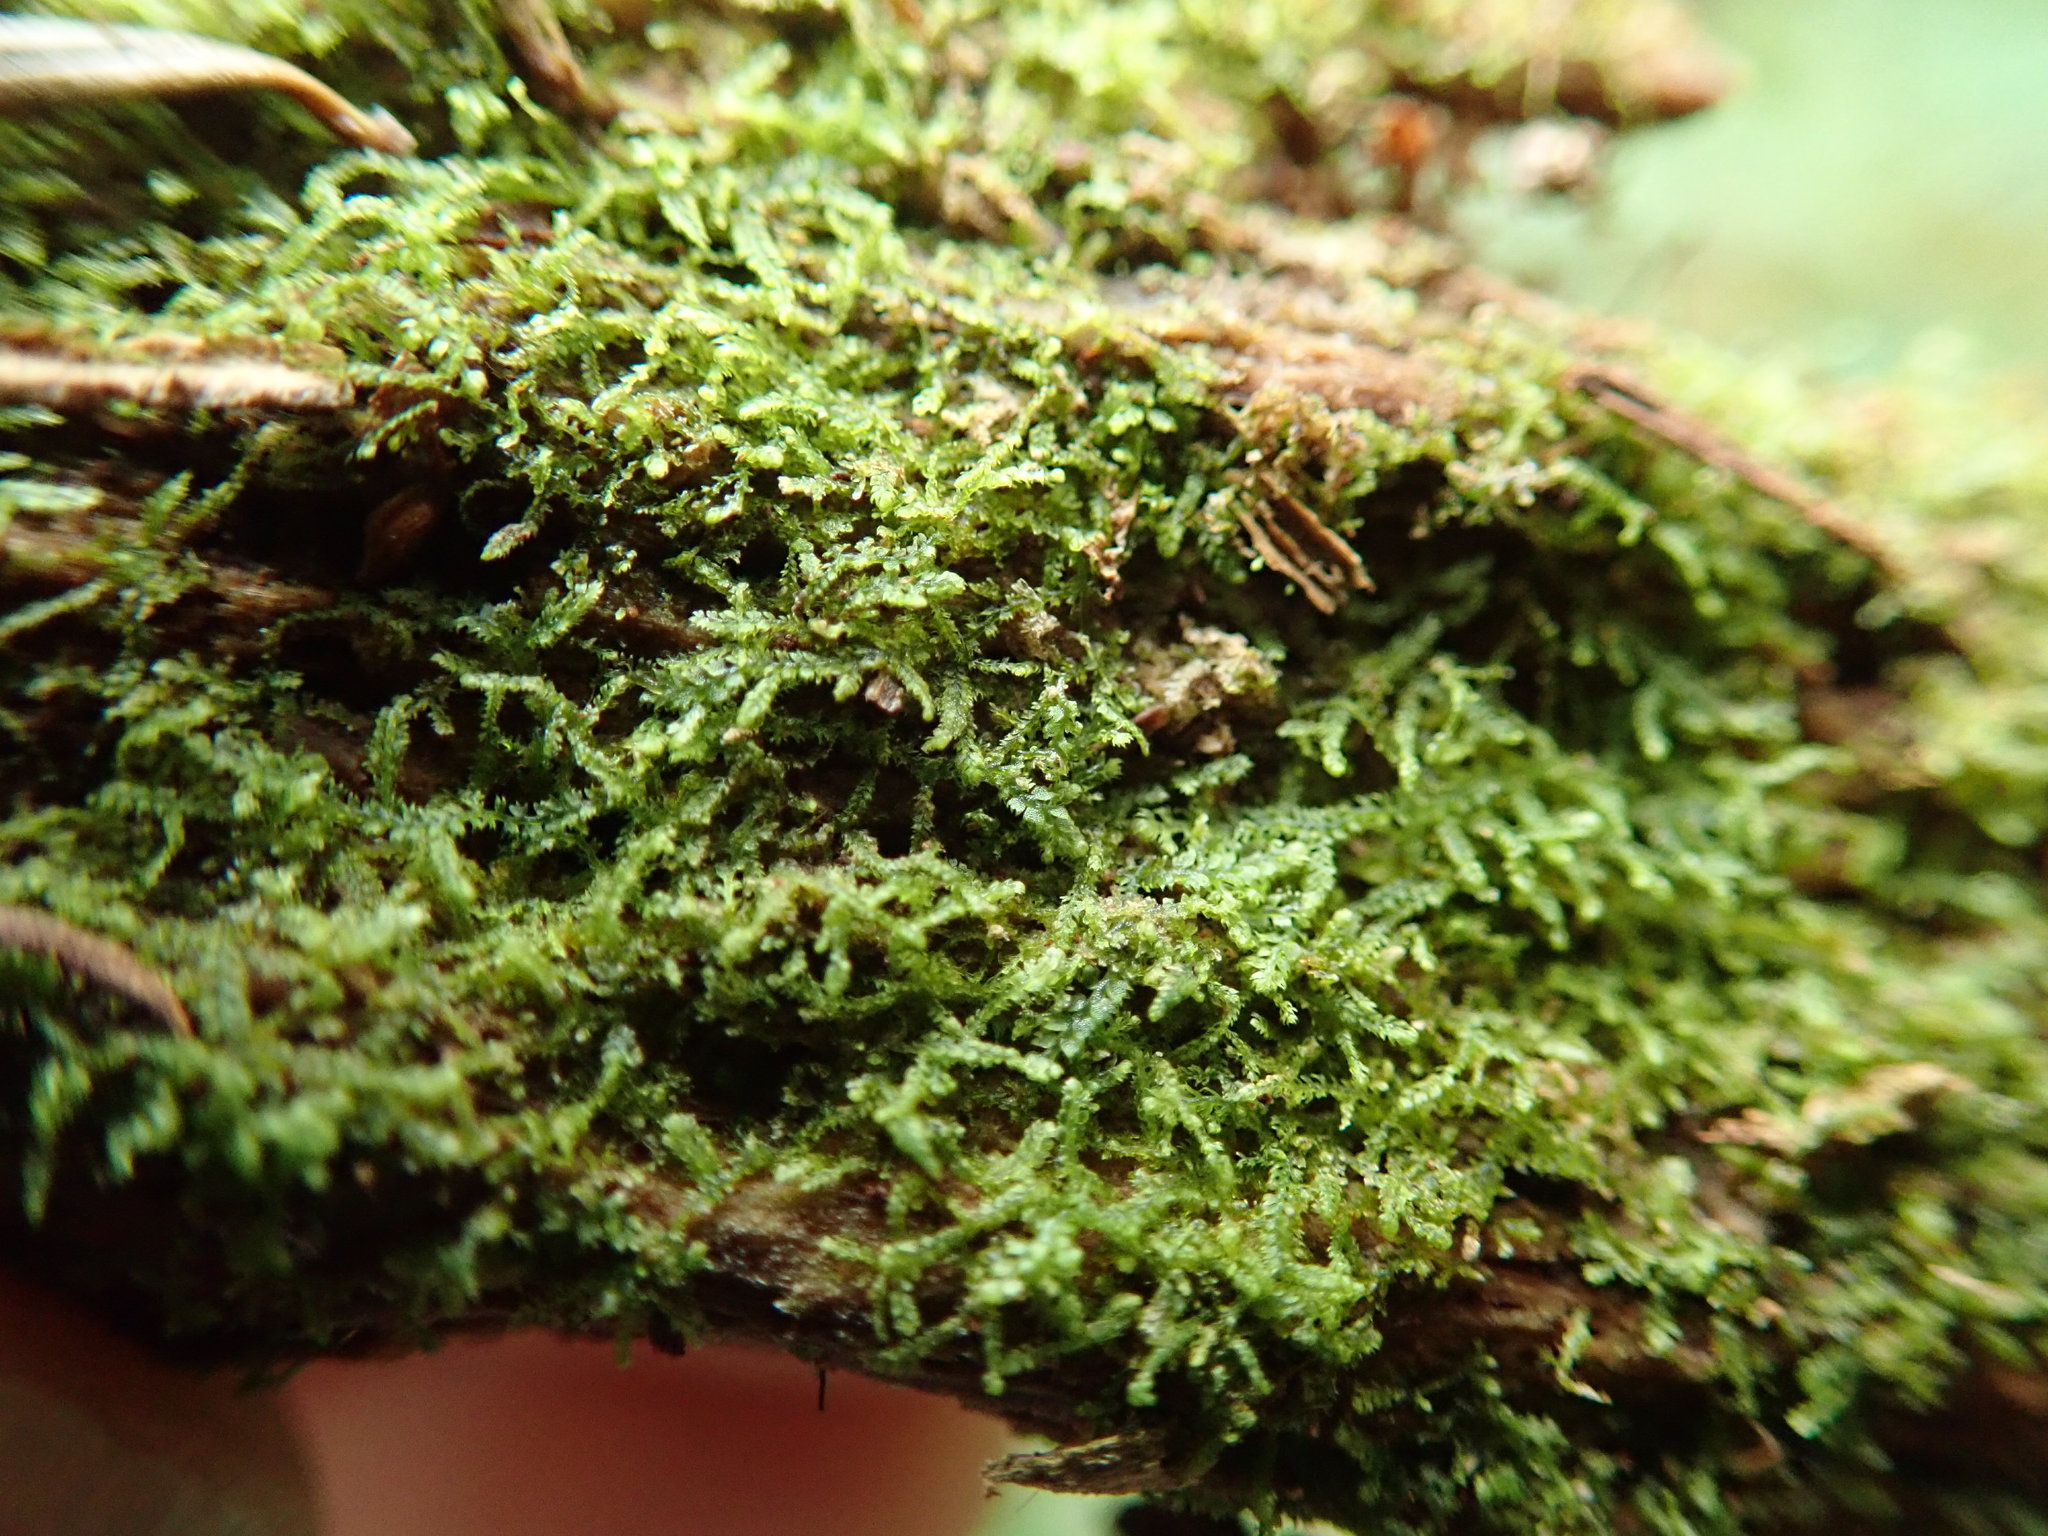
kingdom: Plantae
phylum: Marchantiophyta
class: Jungermanniopsida
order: Jungermanniales
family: Lepidoziaceae
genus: Lepidozia
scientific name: Lepidozia reptans
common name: Creeping fingerwort
